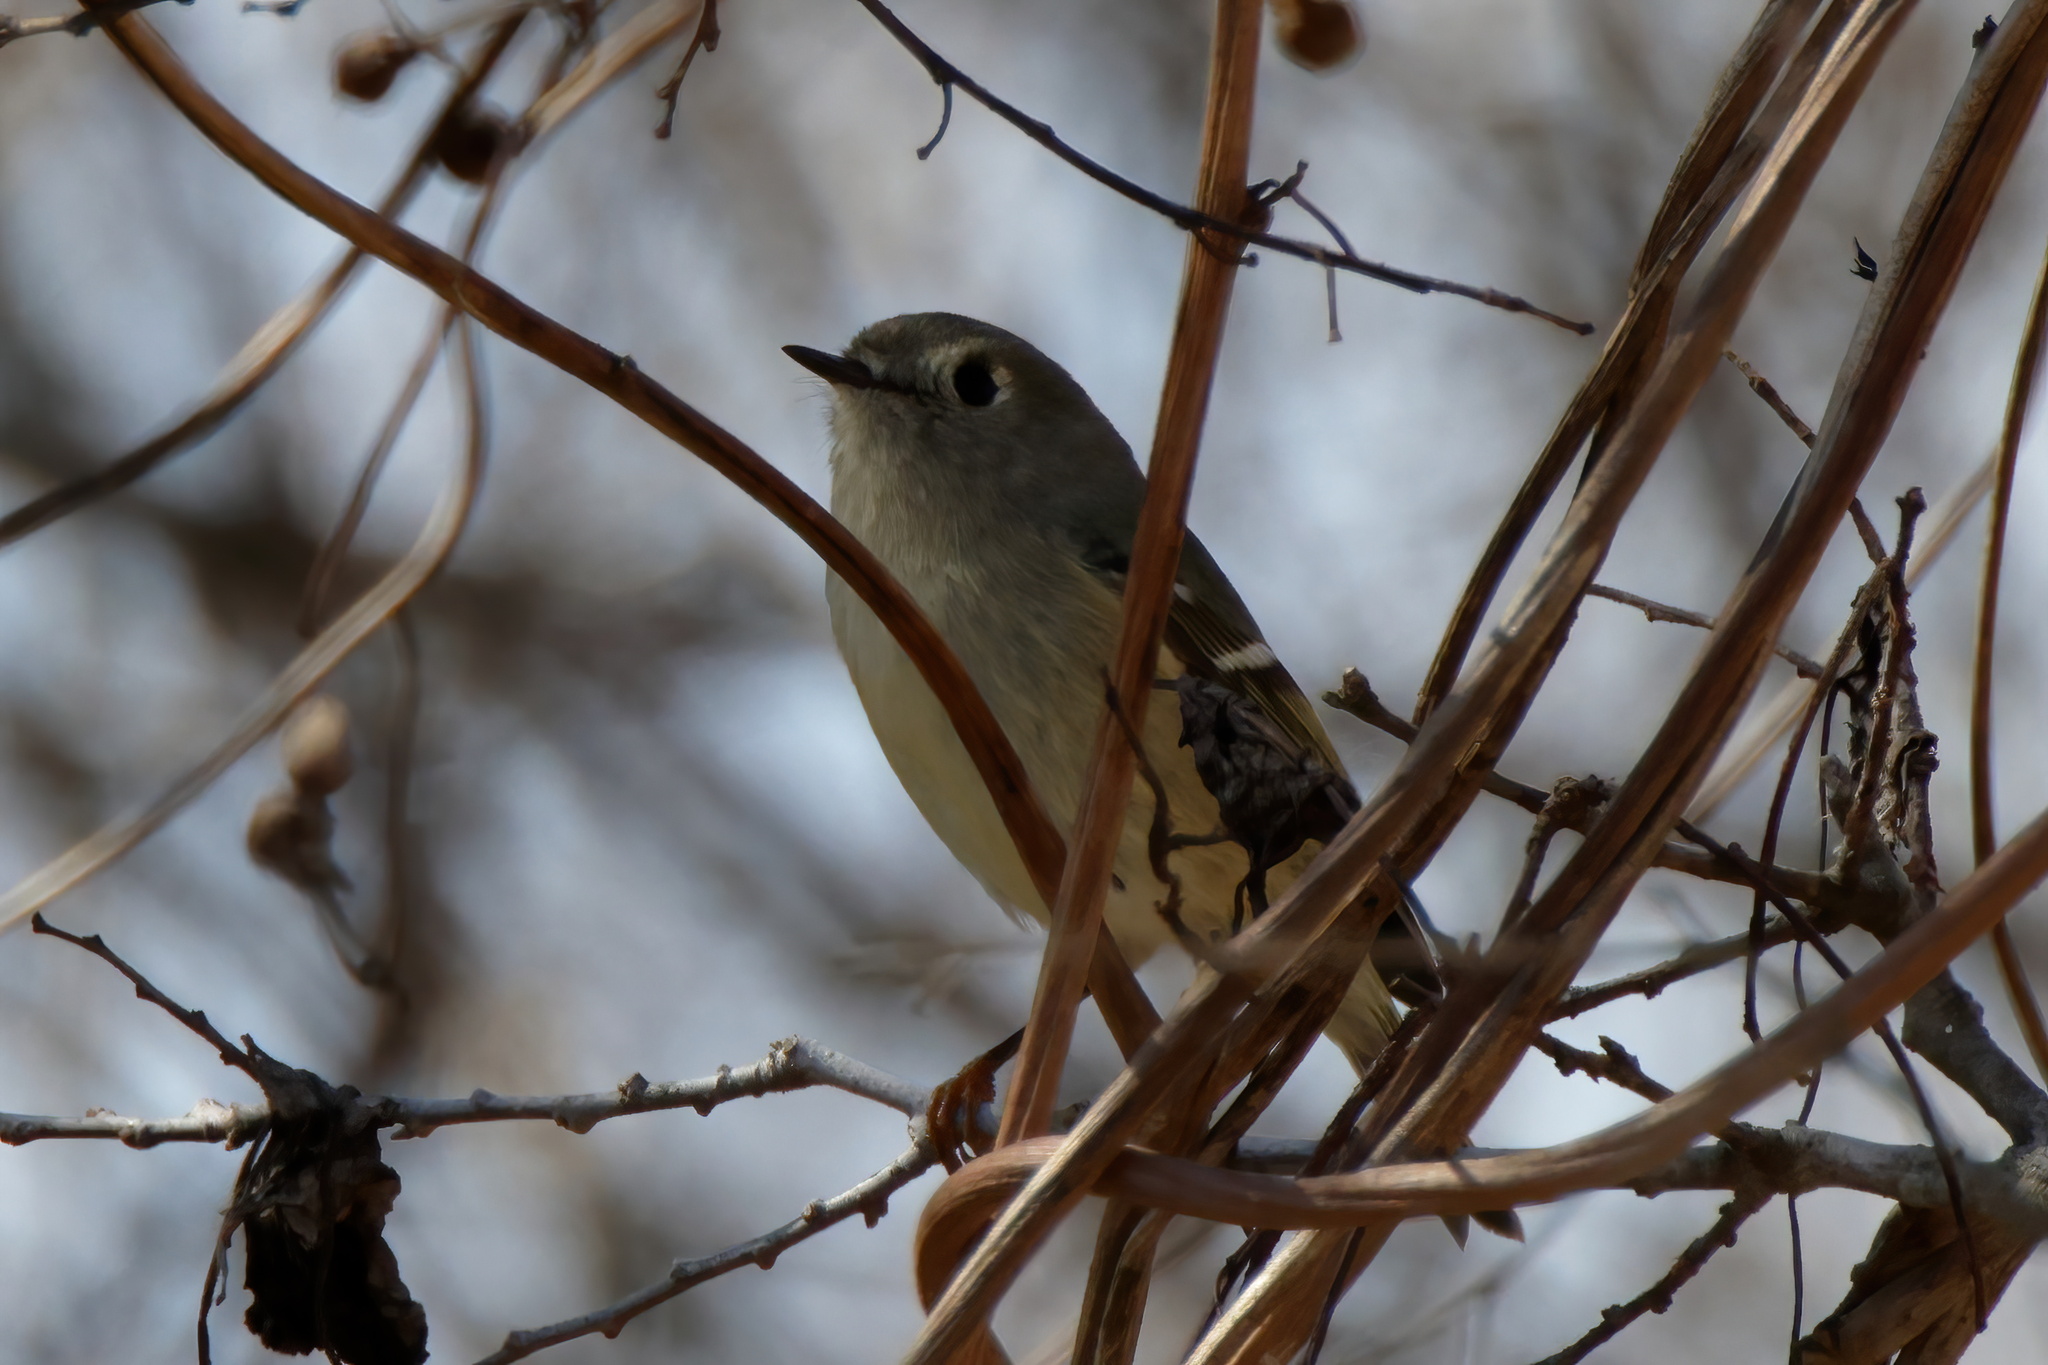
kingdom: Animalia
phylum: Chordata
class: Aves
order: Passeriformes
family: Regulidae
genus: Regulus
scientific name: Regulus calendula
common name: Ruby-crowned kinglet
